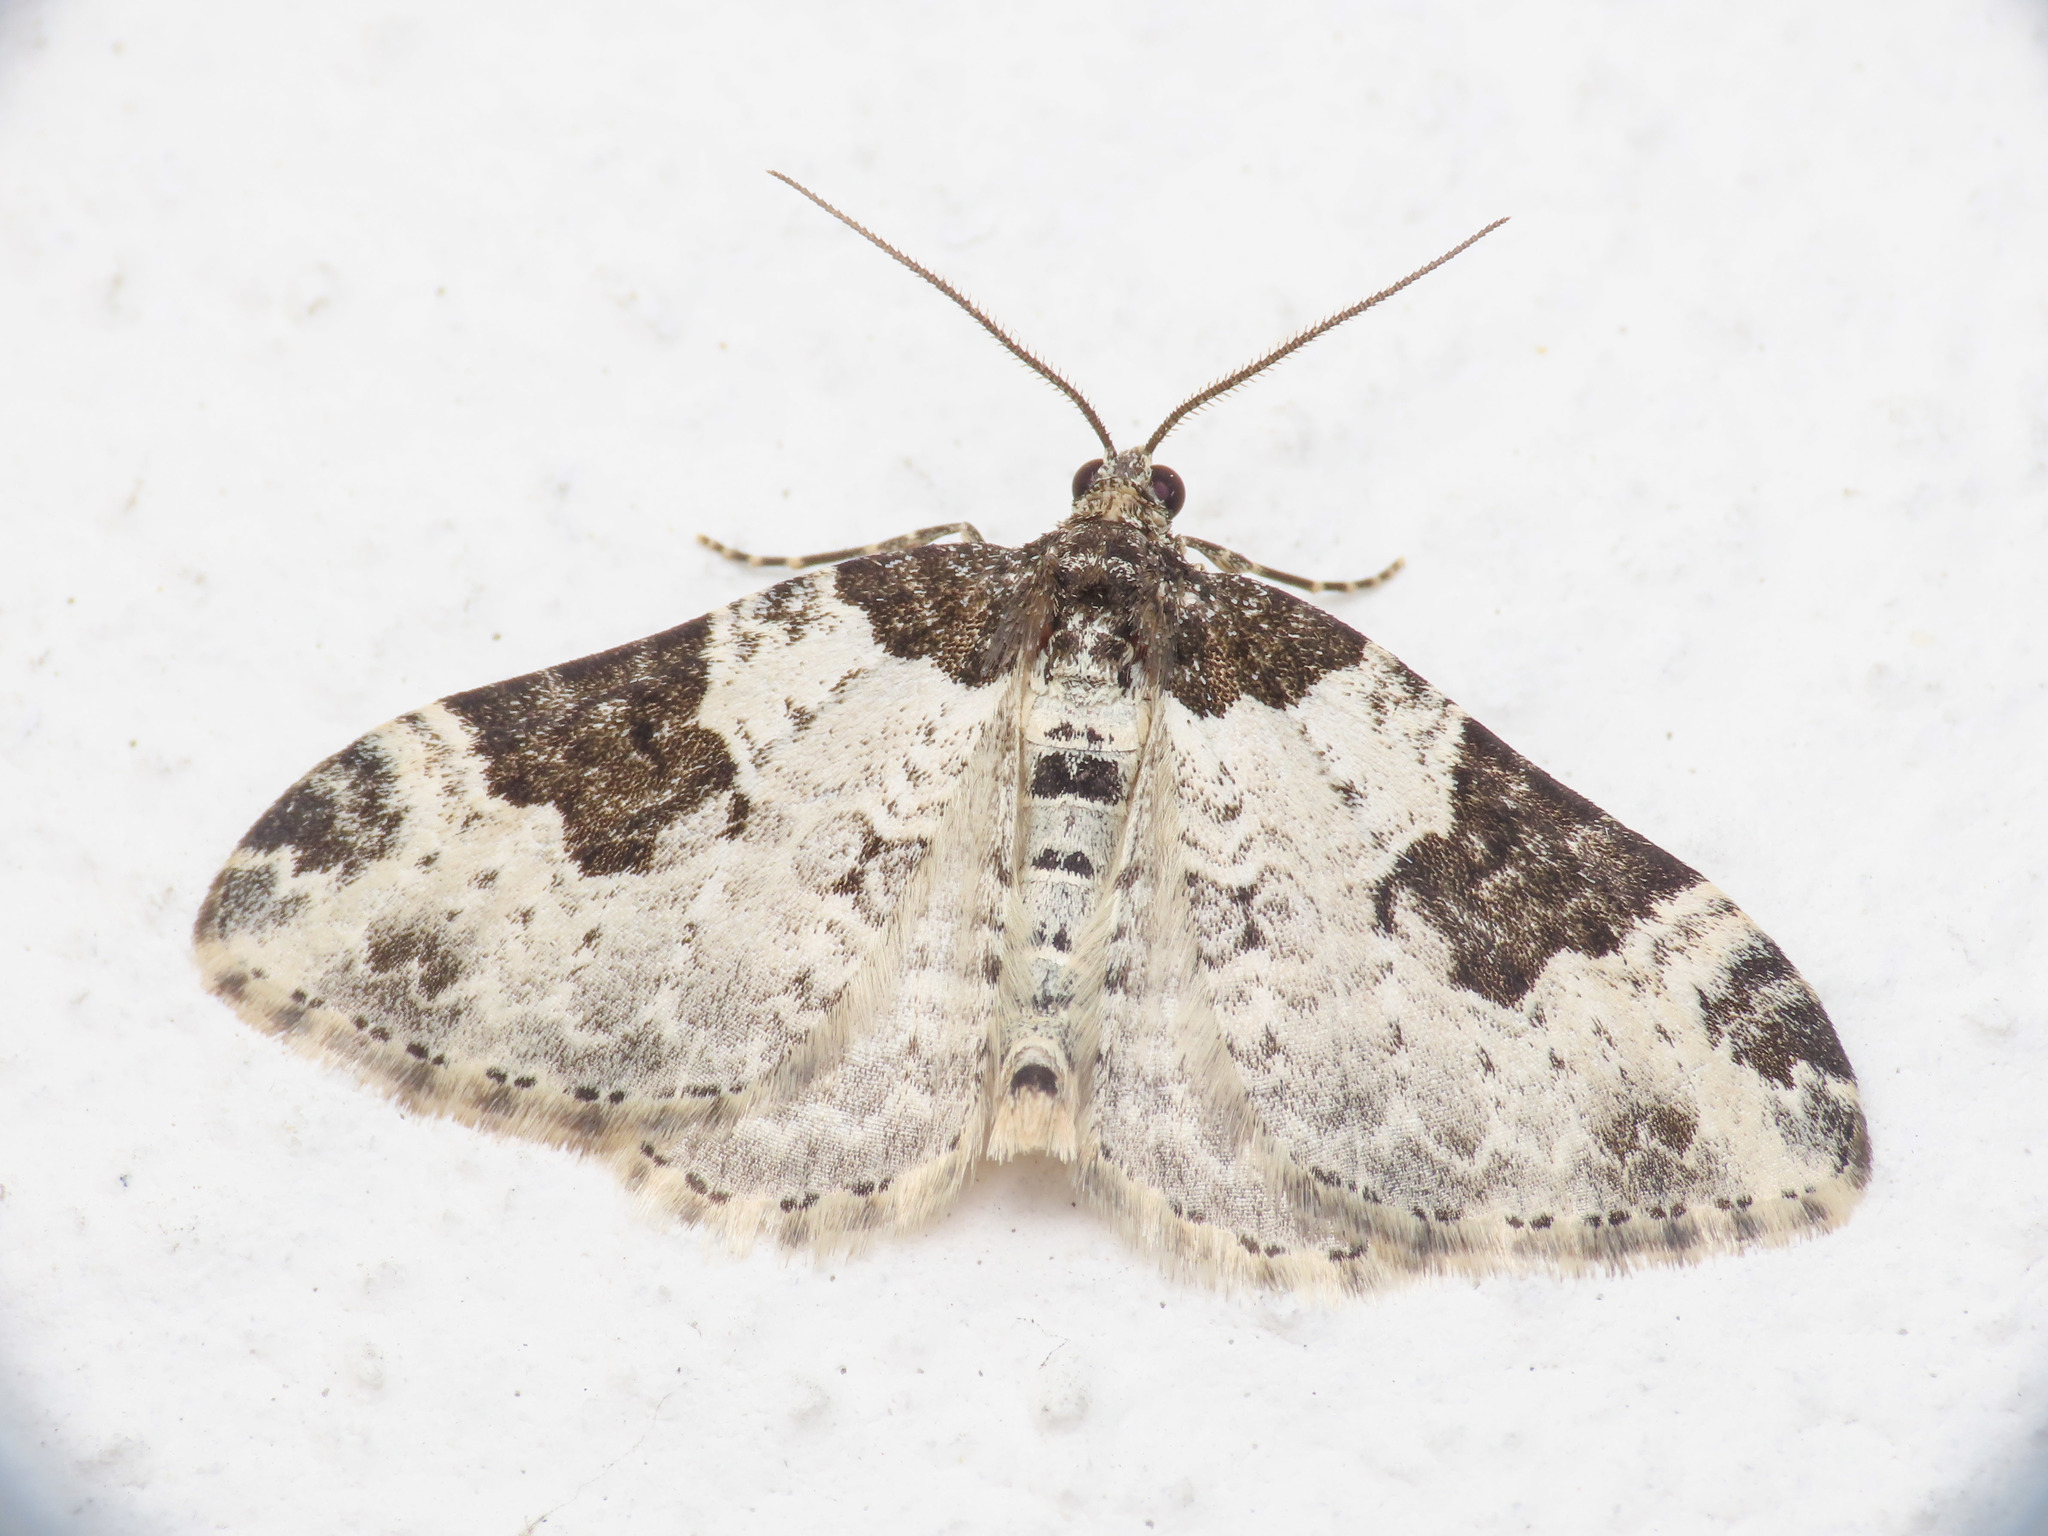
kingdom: Animalia
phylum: Arthropoda
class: Insecta
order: Lepidoptera
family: Geometridae
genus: Xanthorhoe
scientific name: Xanthorhoe fluctuata
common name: Garden carpet
